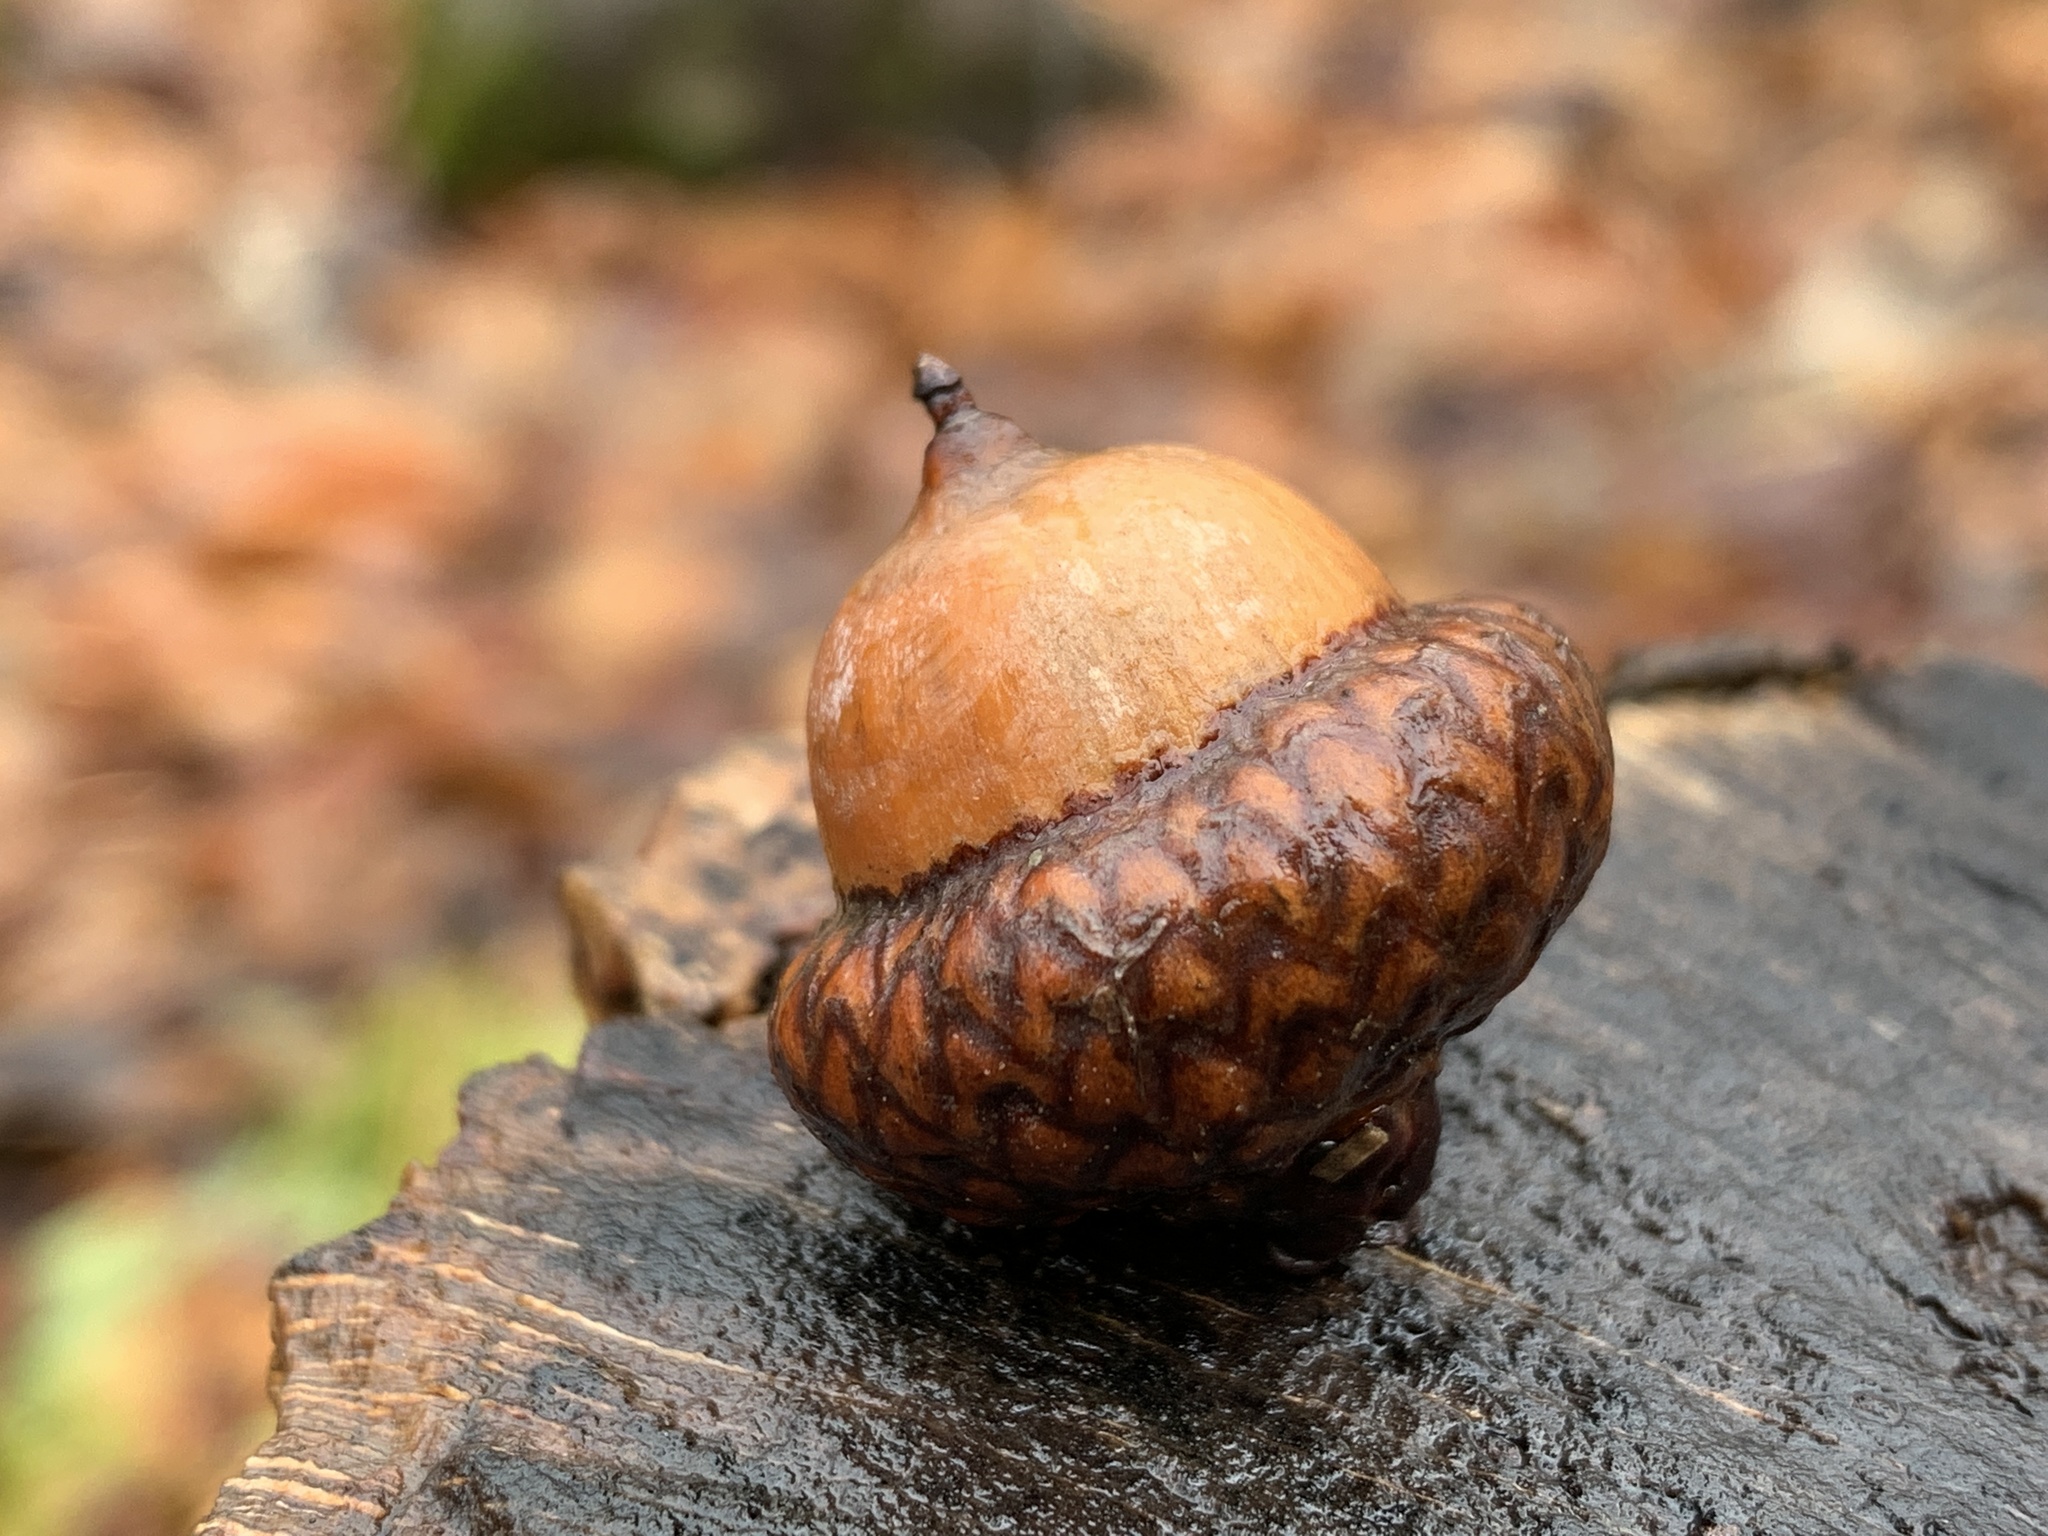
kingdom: Plantae
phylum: Tracheophyta
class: Magnoliopsida
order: Fagales
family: Fagaceae
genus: Quercus
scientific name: Quercus rubra
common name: Red oak
